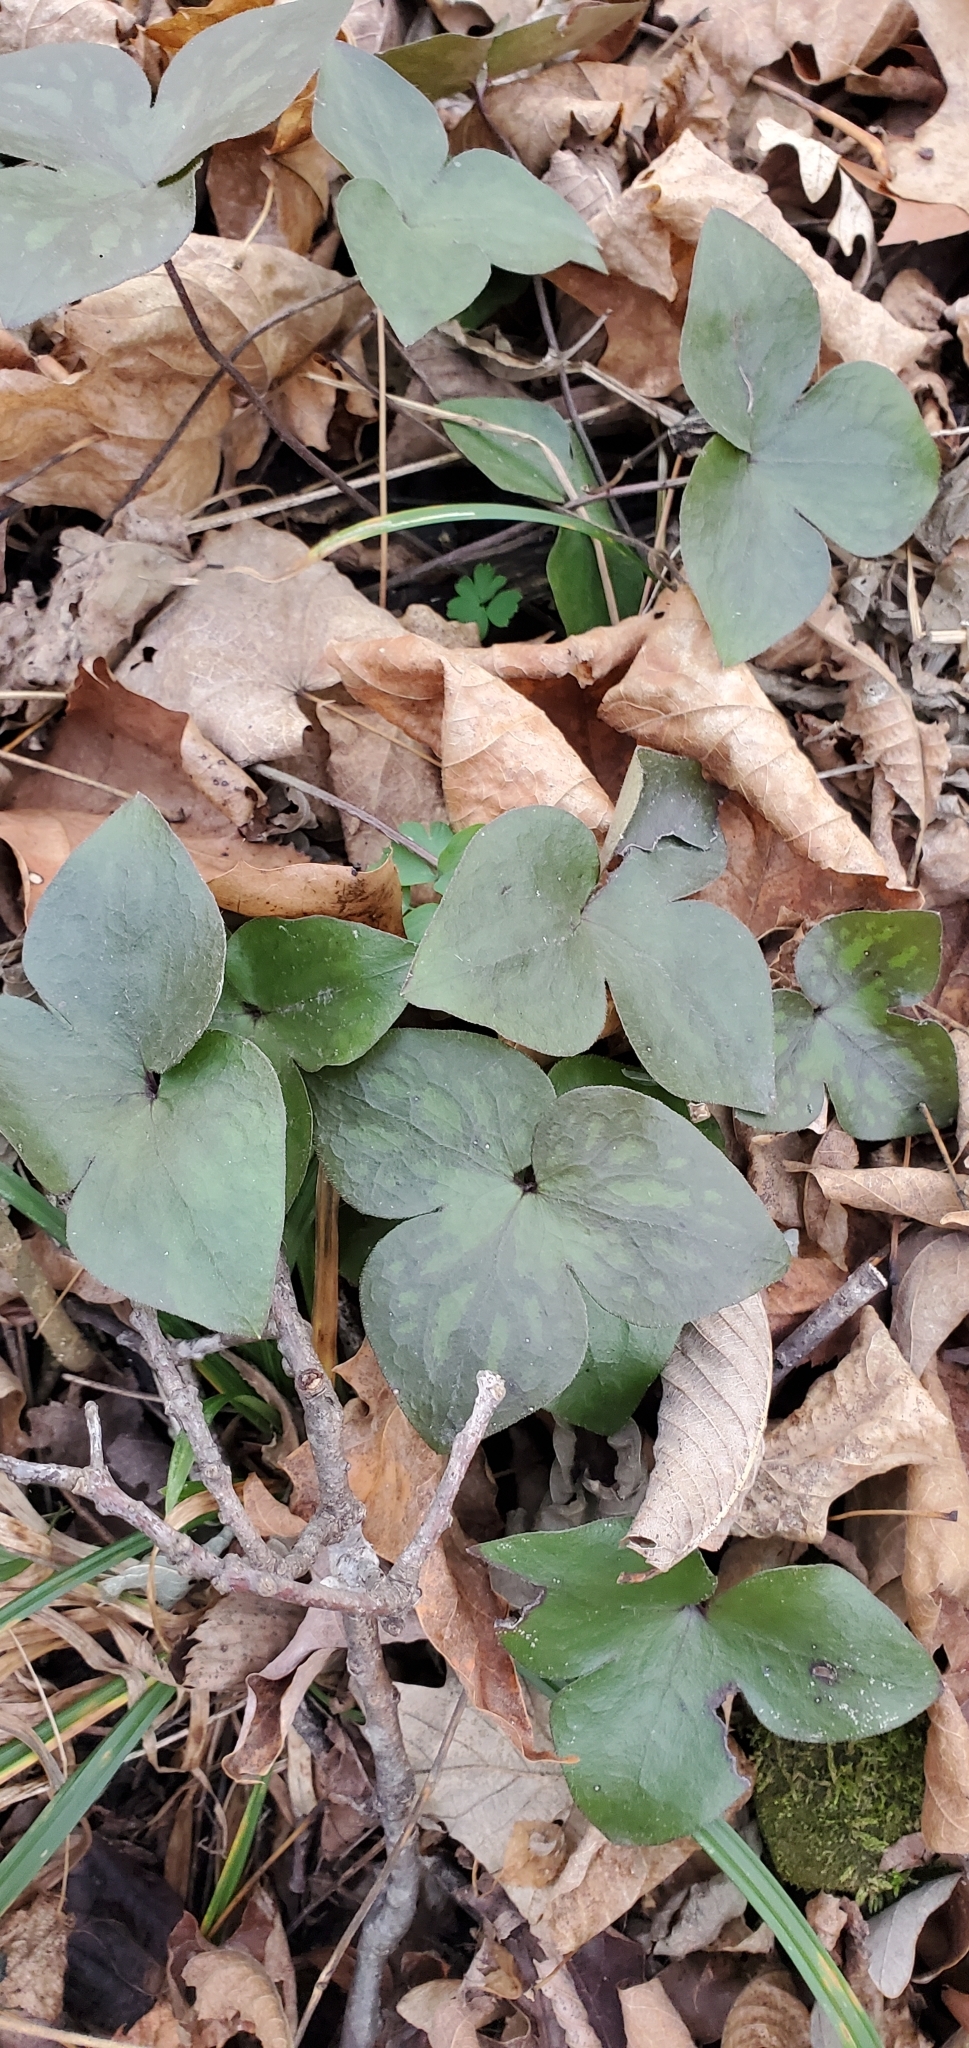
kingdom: Plantae
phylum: Tracheophyta
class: Magnoliopsida
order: Ranunculales
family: Ranunculaceae
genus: Hepatica
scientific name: Hepatica acutiloba
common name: Sharp-lobed hepatica
